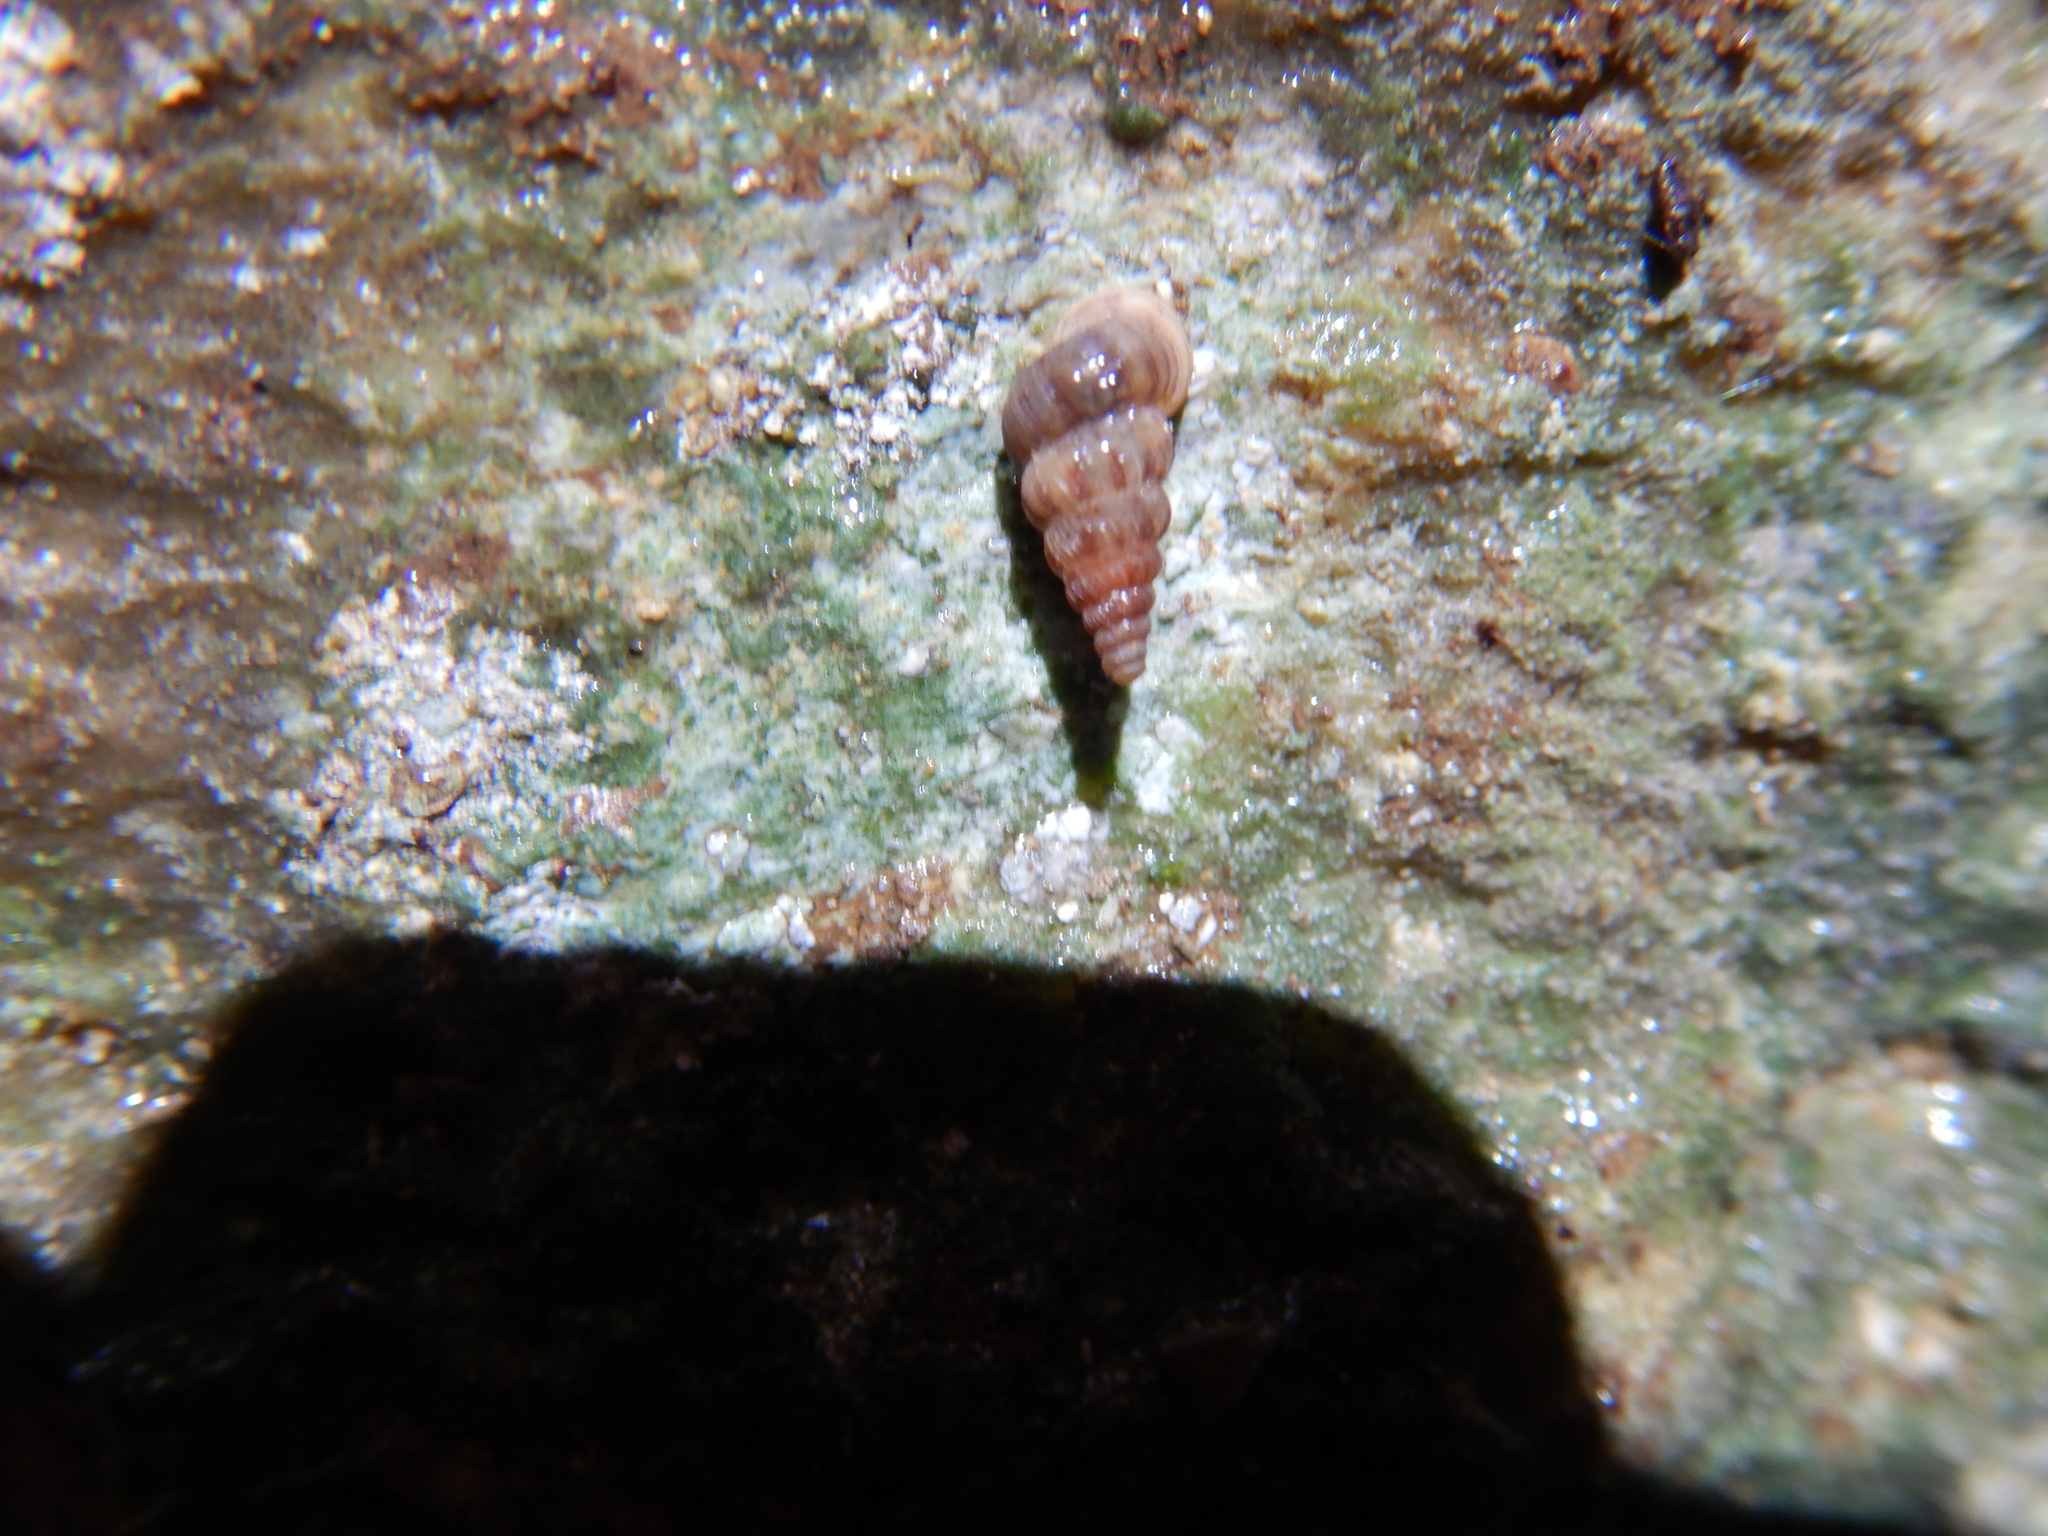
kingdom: Animalia
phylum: Mollusca
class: Gastropoda
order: Architaenioglossa
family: Cochlostomatidae
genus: Cochlostoma
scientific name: Cochlostoma septemspirale
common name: Seven-whorl snail
